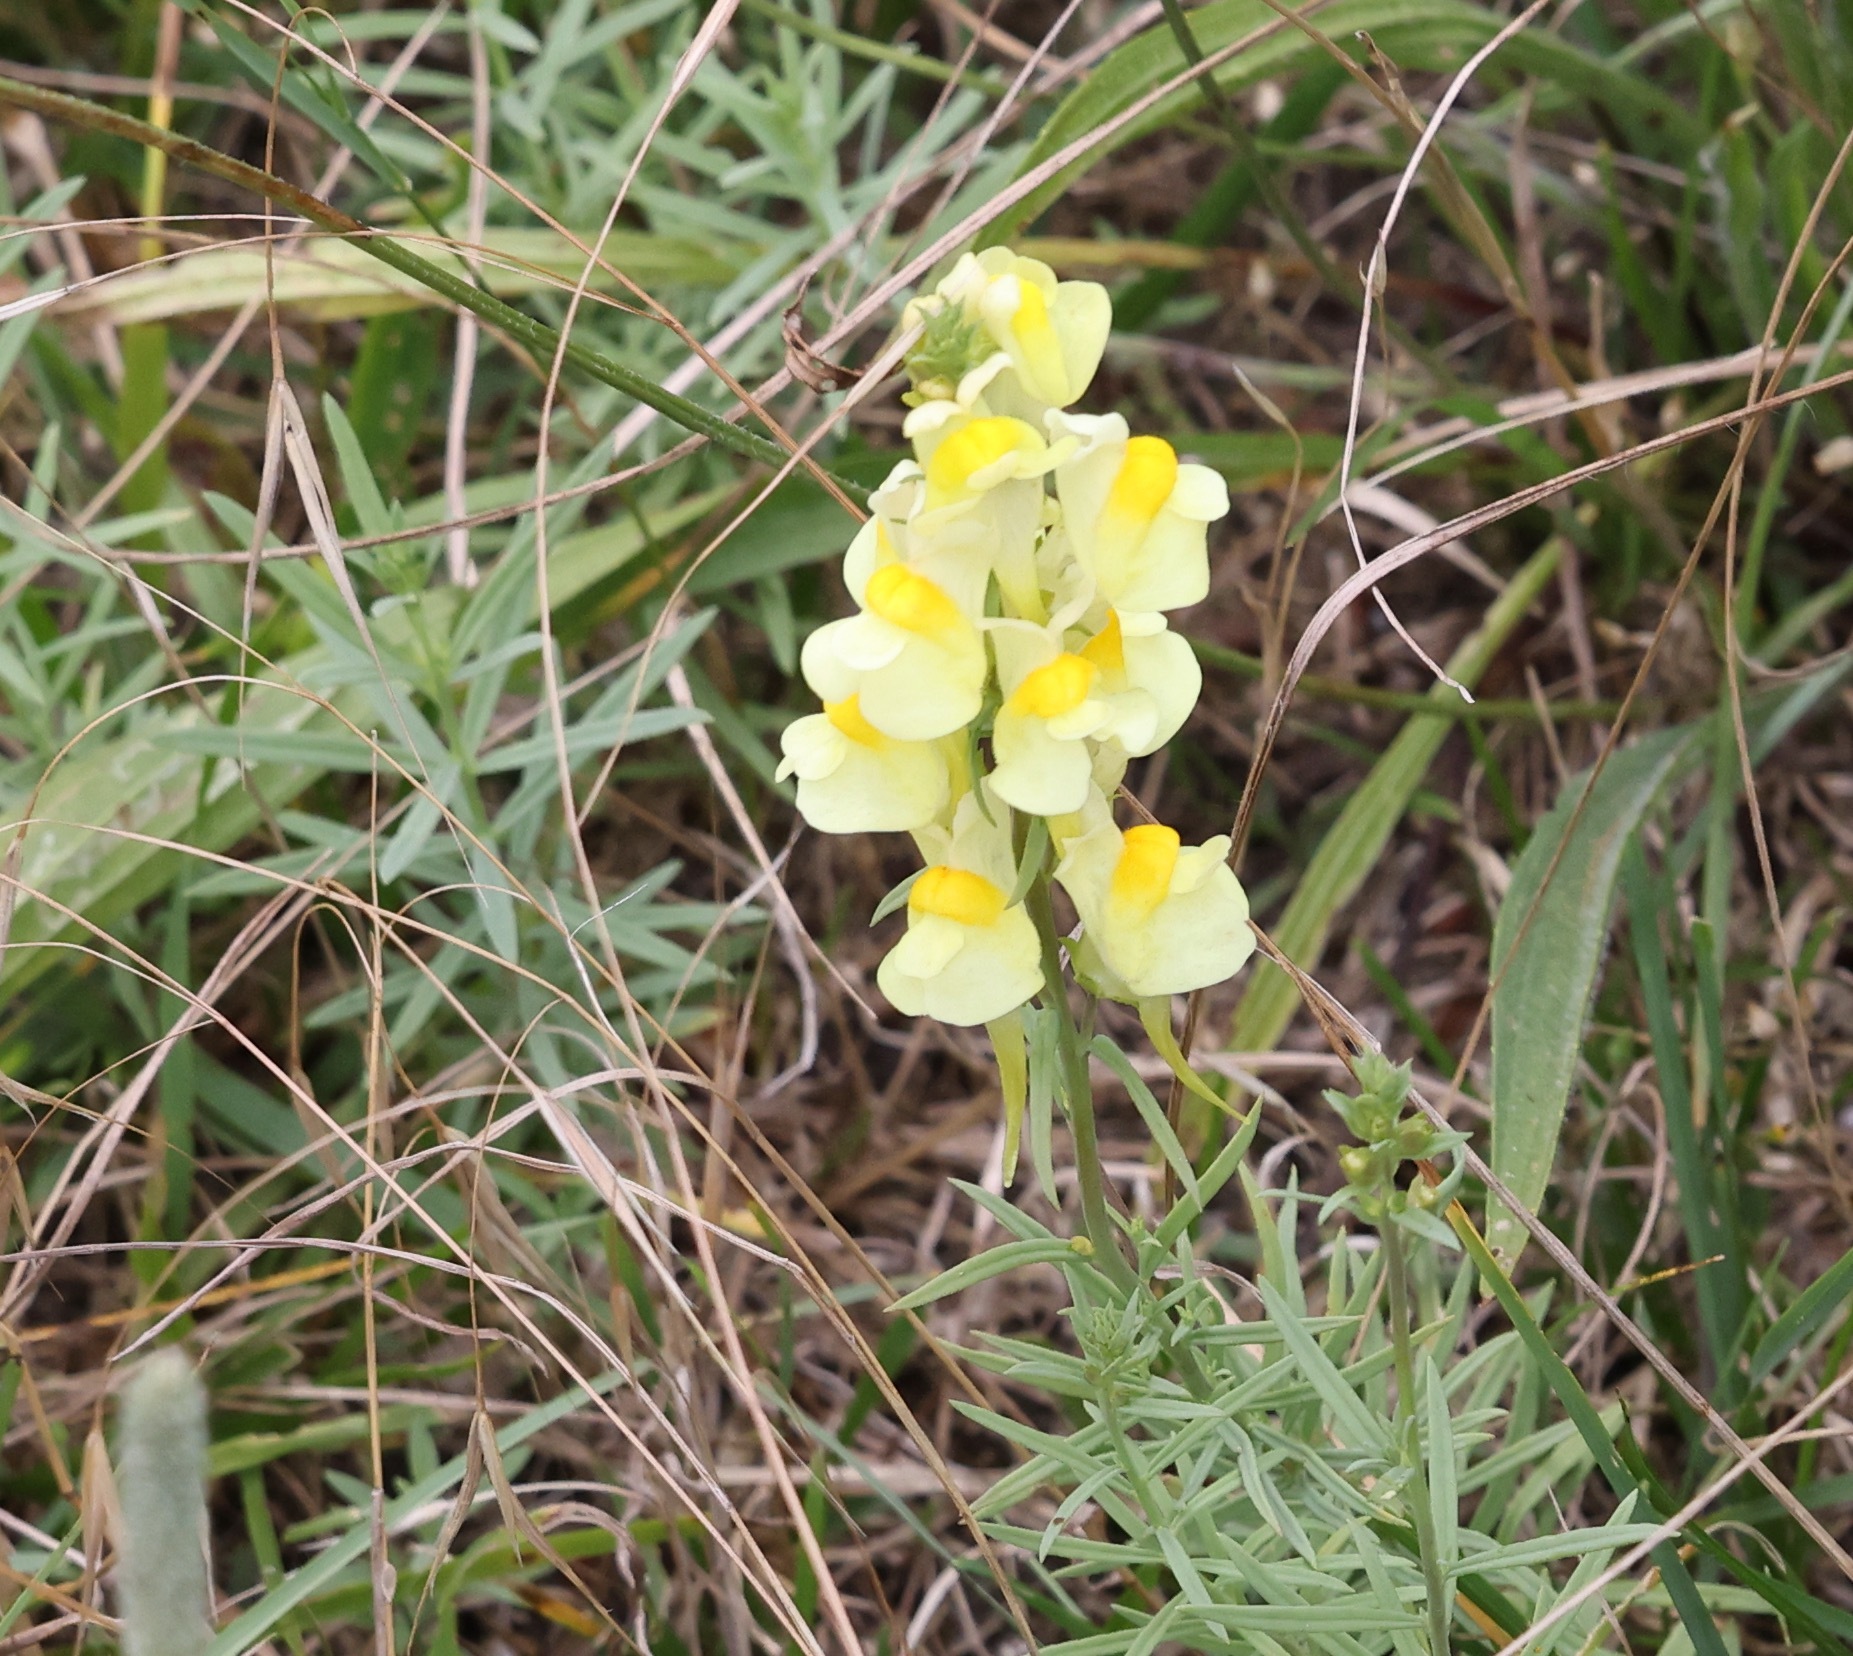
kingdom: Plantae
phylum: Tracheophyta
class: Magnoliopsida
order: Lamiales
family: Plantaginaceae
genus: Linaria
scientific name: Linaria vulgaris
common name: Butter and eggs
